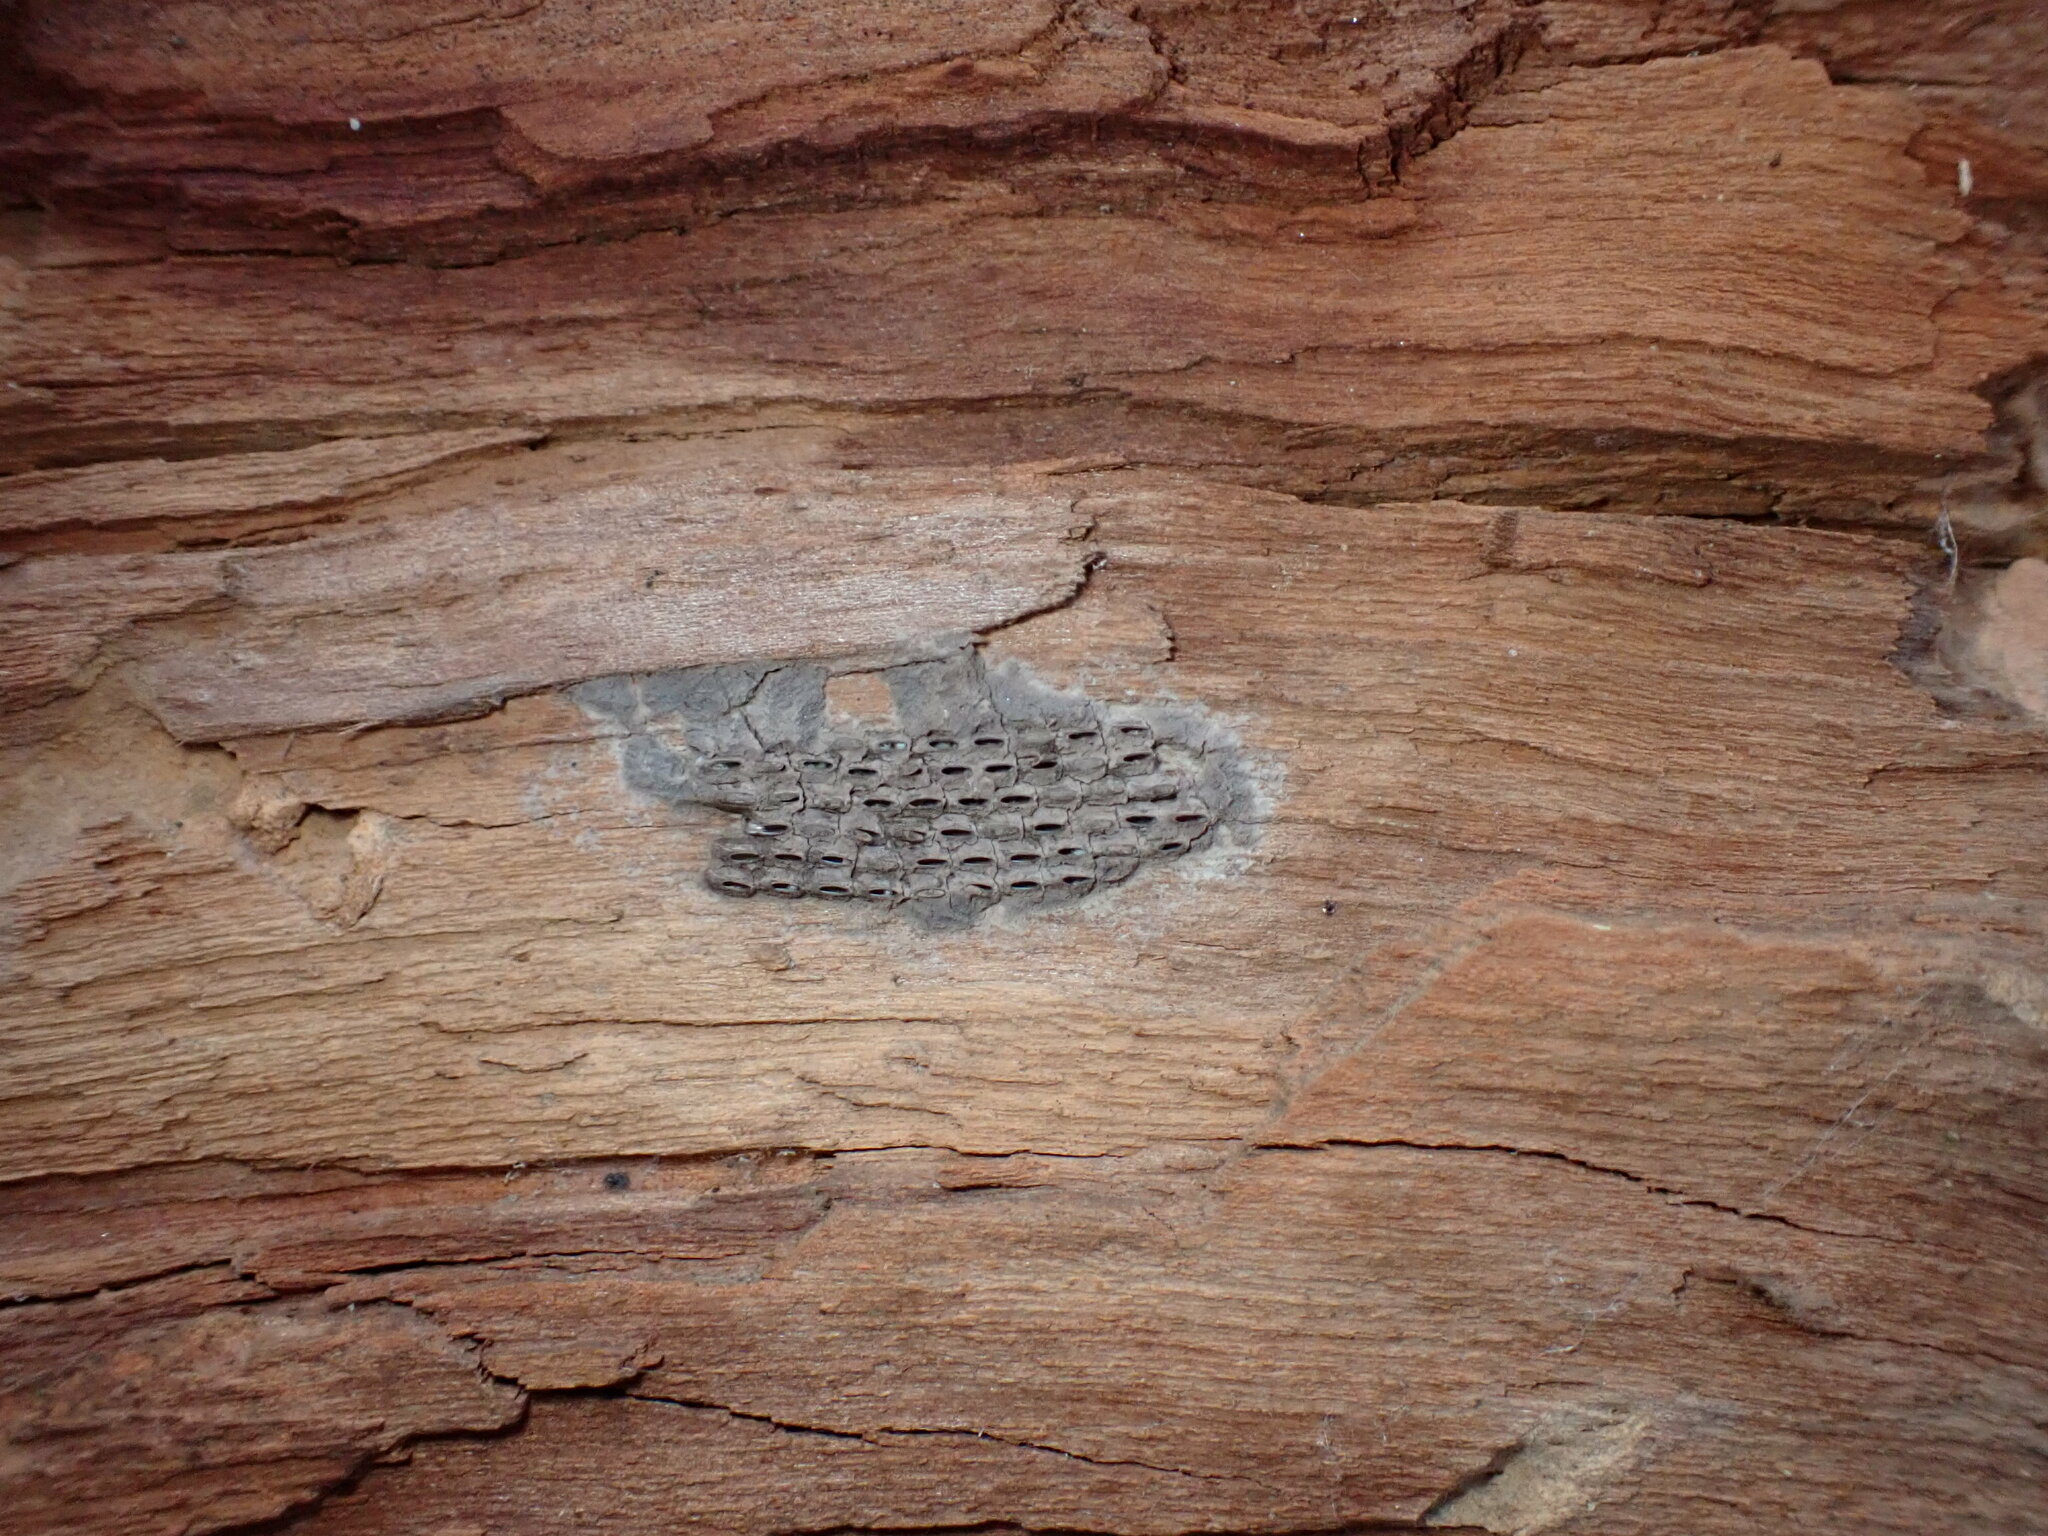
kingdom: Animalia
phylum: Arthropoda
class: Insecta
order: Hemiptera
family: Fulgoridae
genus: Lycorma
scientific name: Lycorma delicatula
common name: Spotted lanternfly
